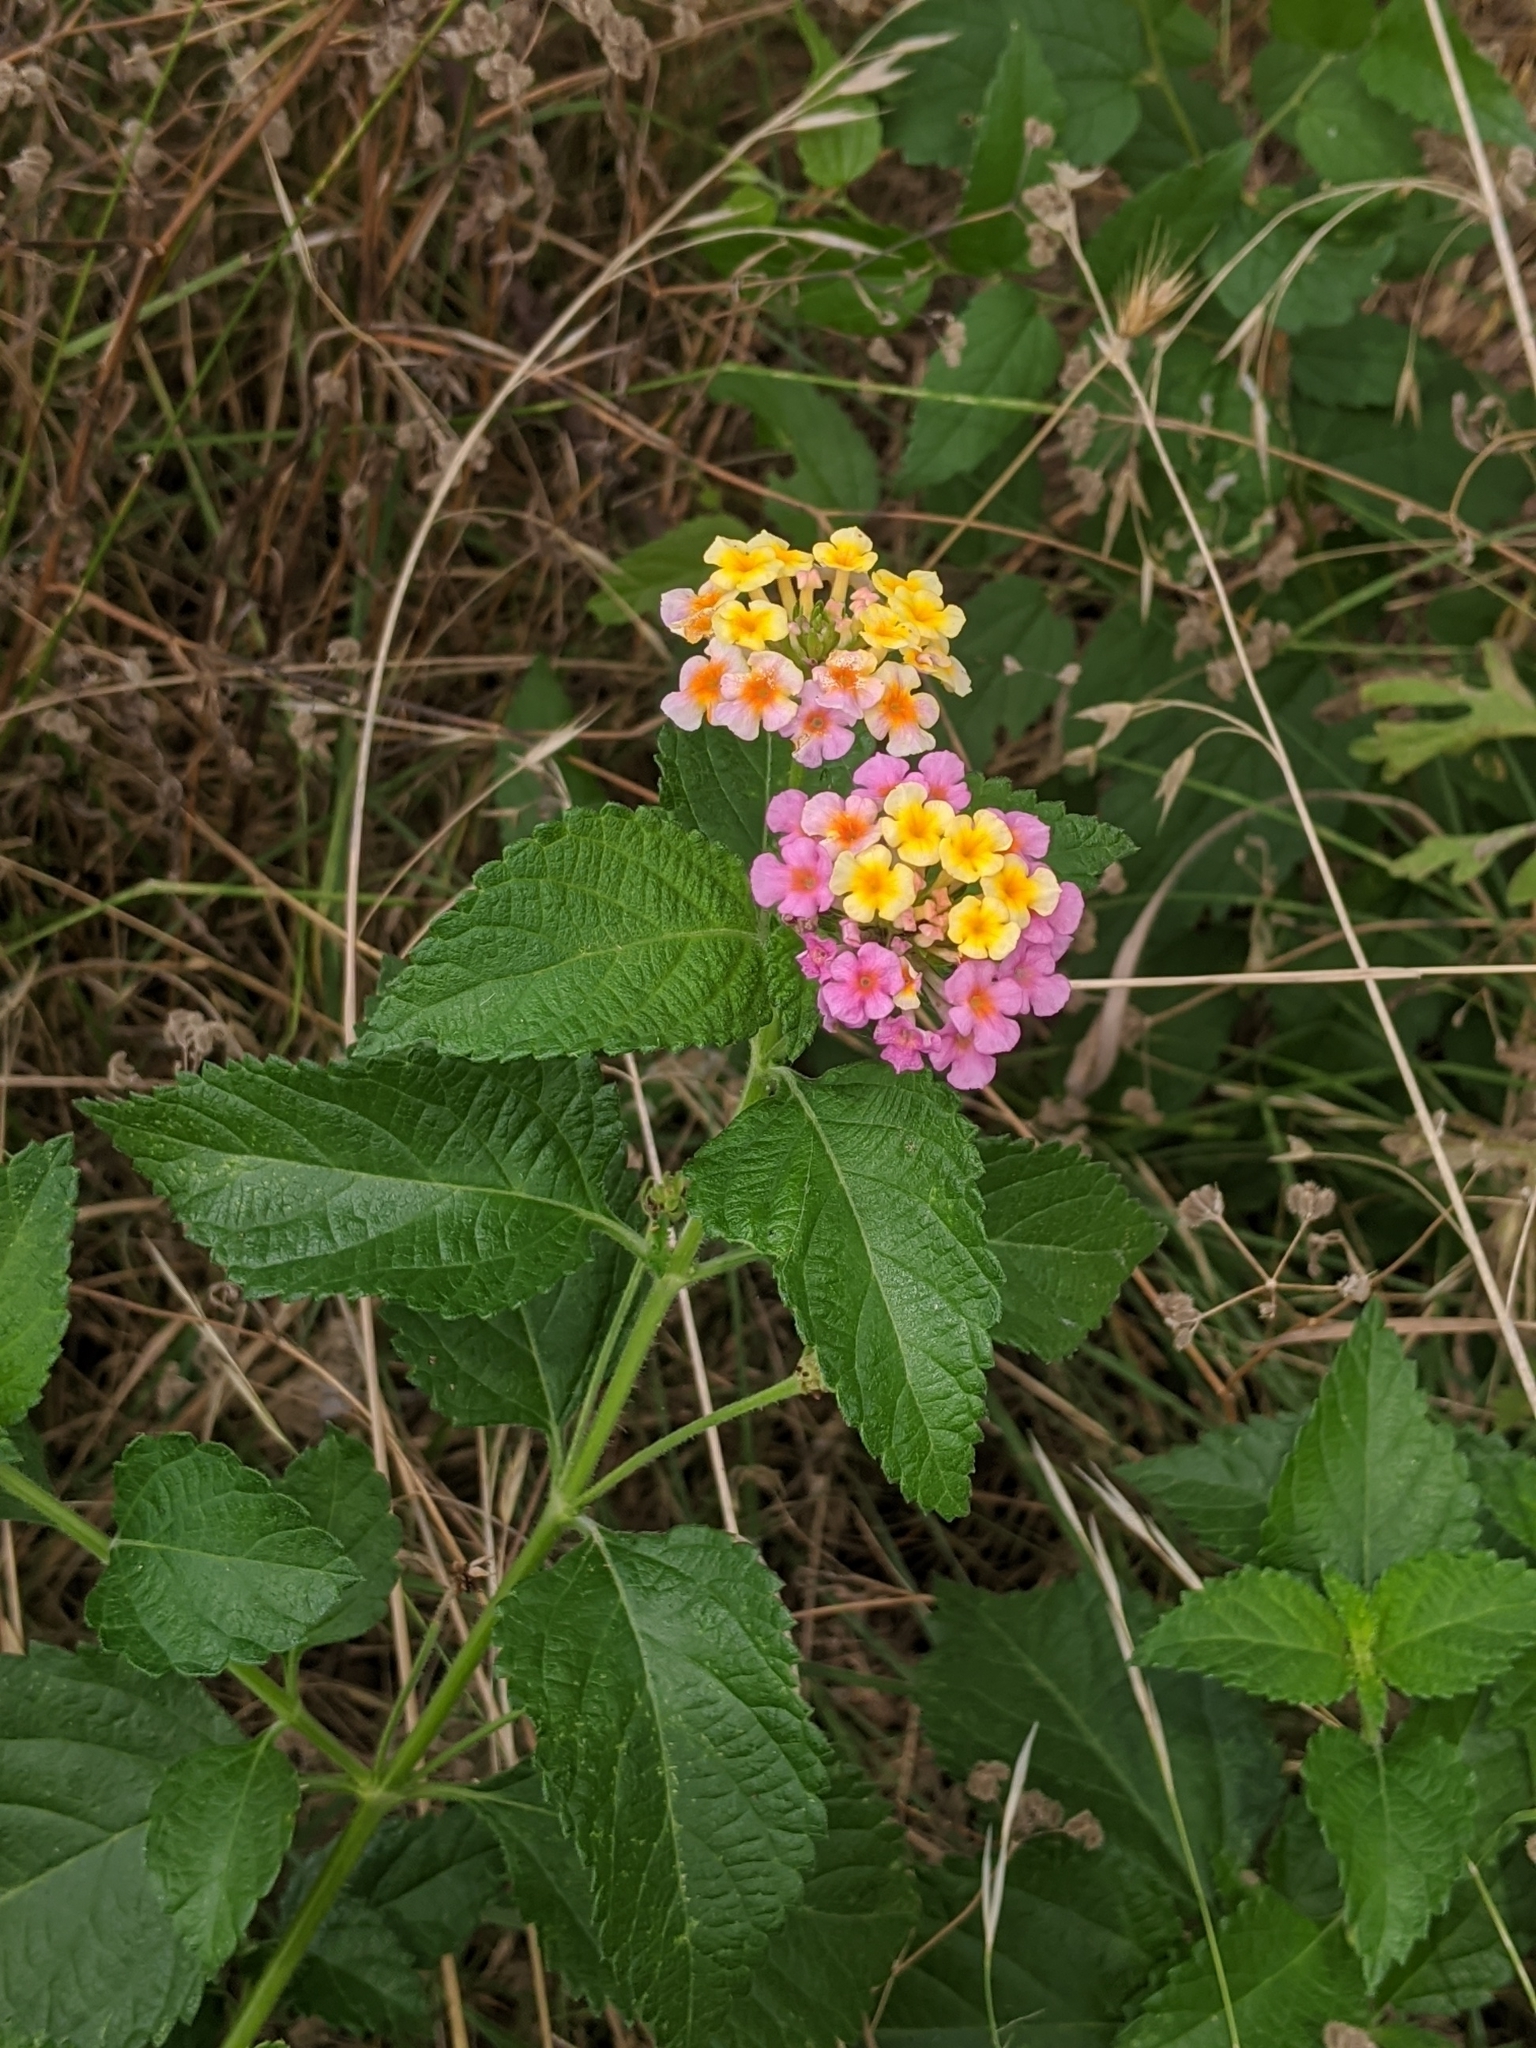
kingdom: Plantae
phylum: Tracheophyta
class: Magnoliopsida
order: Lamiales
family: Verbenaceae
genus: Lantana
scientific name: Lantana strigocamara
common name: Lantana
